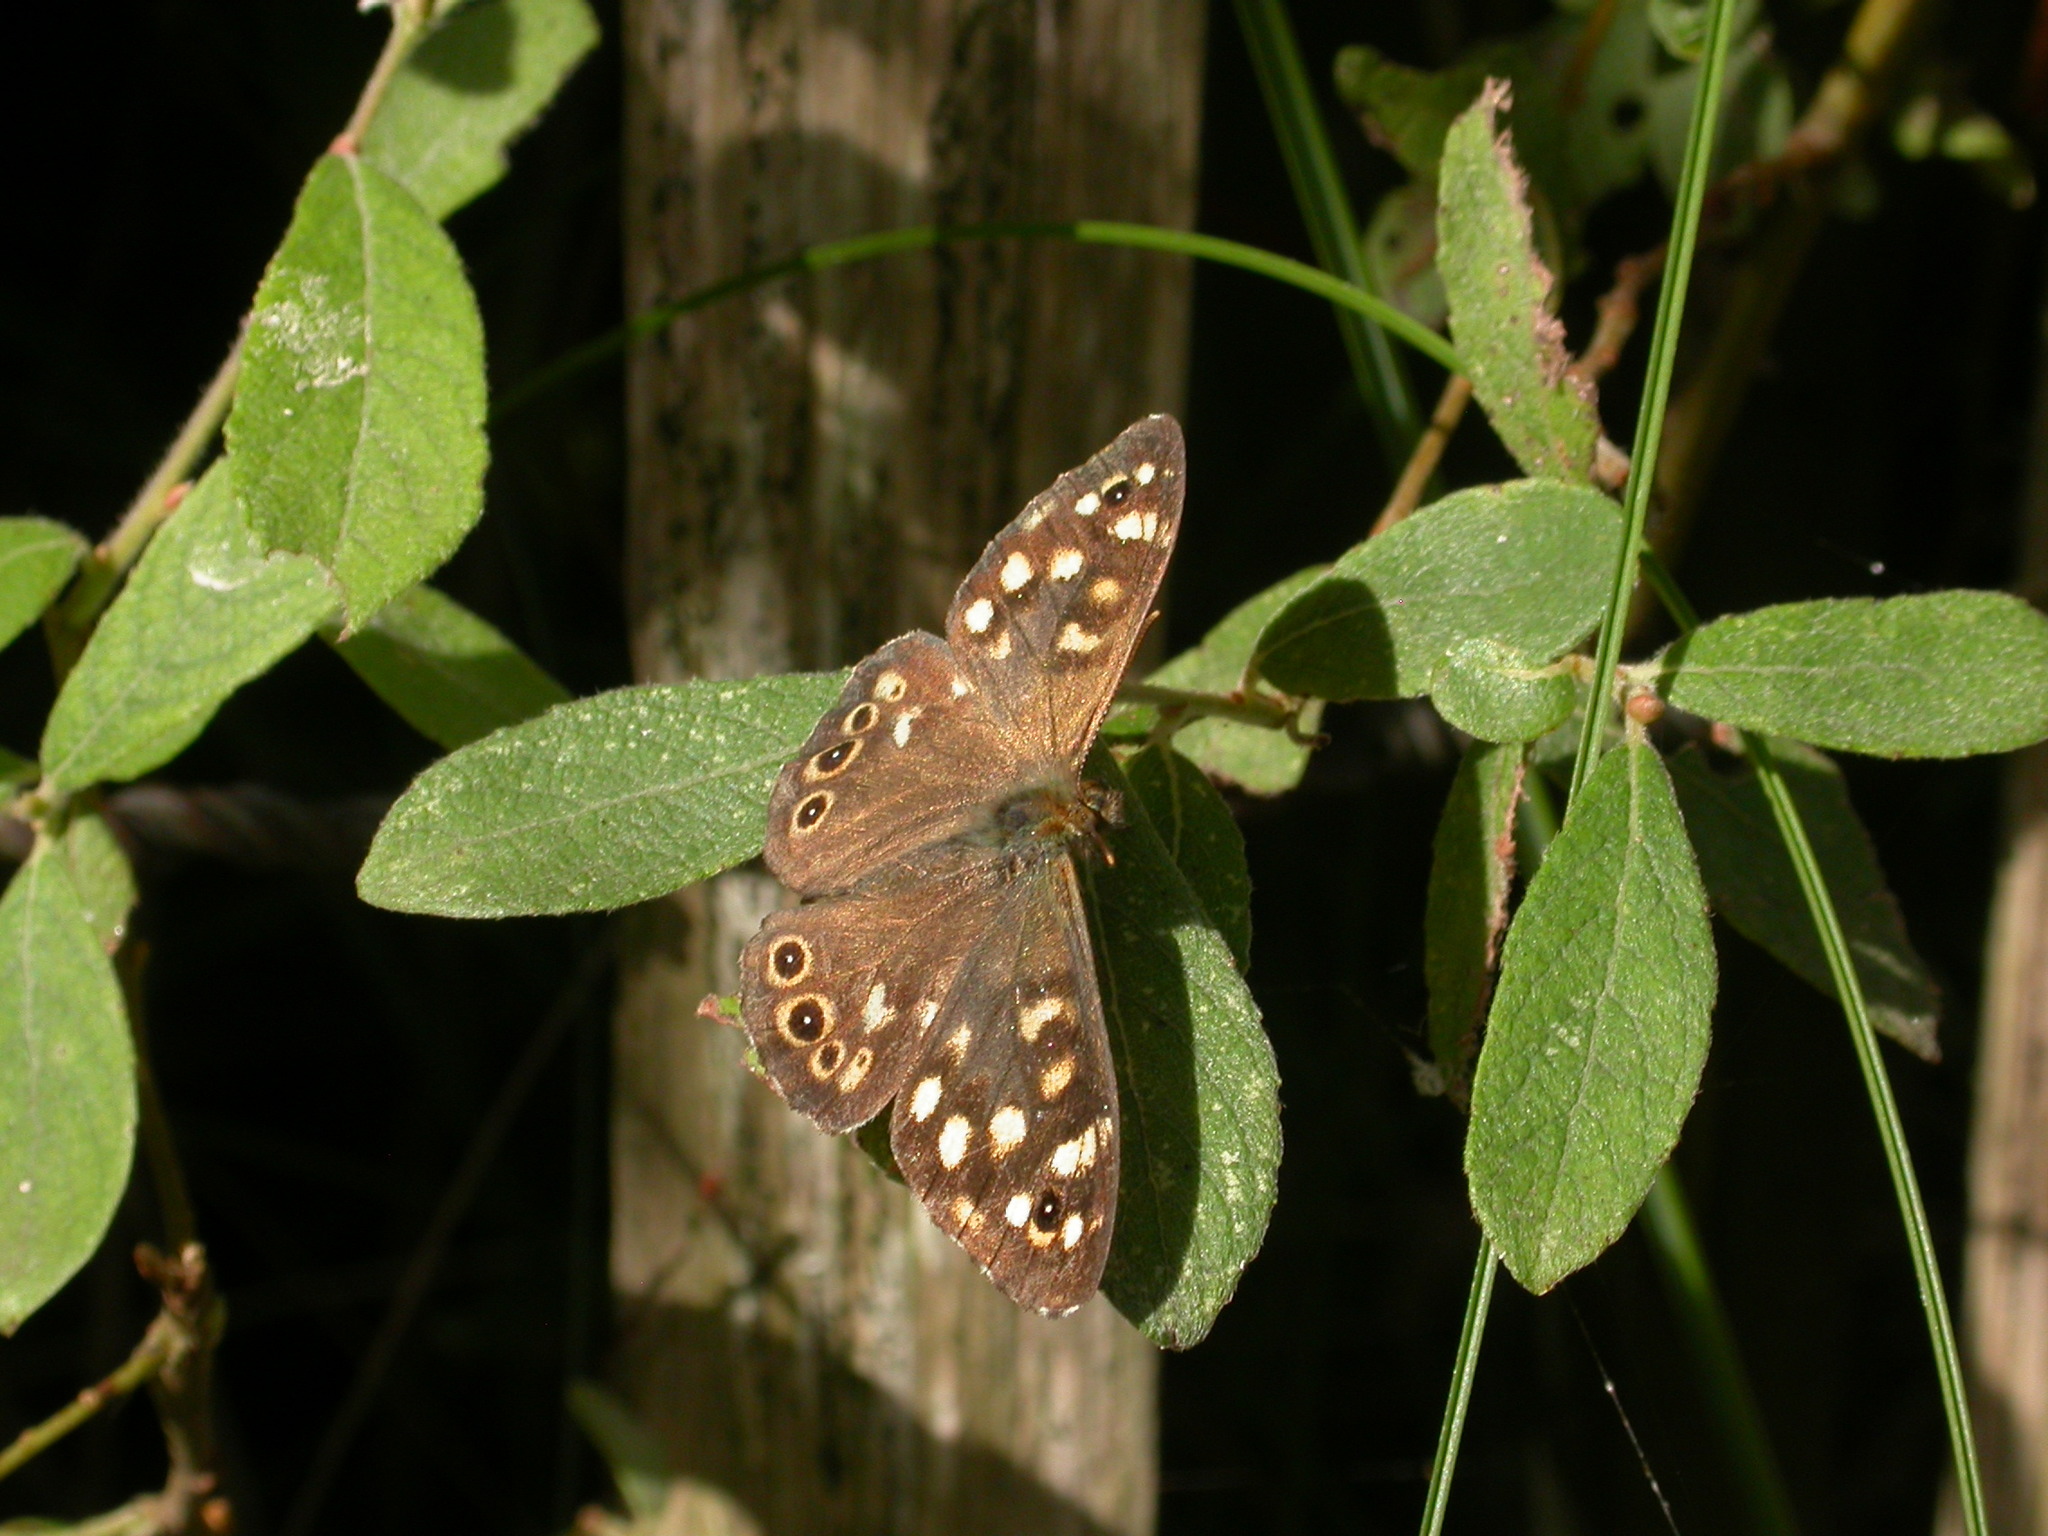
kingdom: Animalia
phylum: Arthropoda
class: Insecta
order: Lepidoptera
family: Nymphalidae
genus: Pararge
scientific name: Pararge aegeria
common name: Speckled wood
